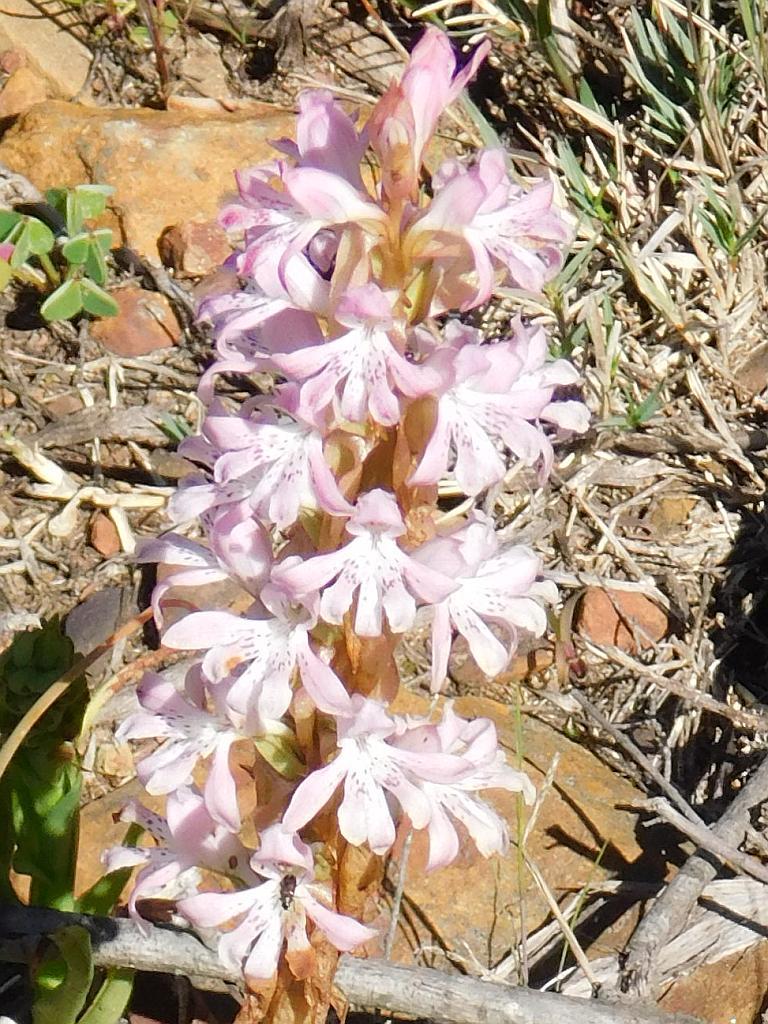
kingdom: Plantae
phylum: Tracheophyta
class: Liliopsida
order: Asparagales
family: Orchidaceae
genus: Satyrium
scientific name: Satyrium erectum
